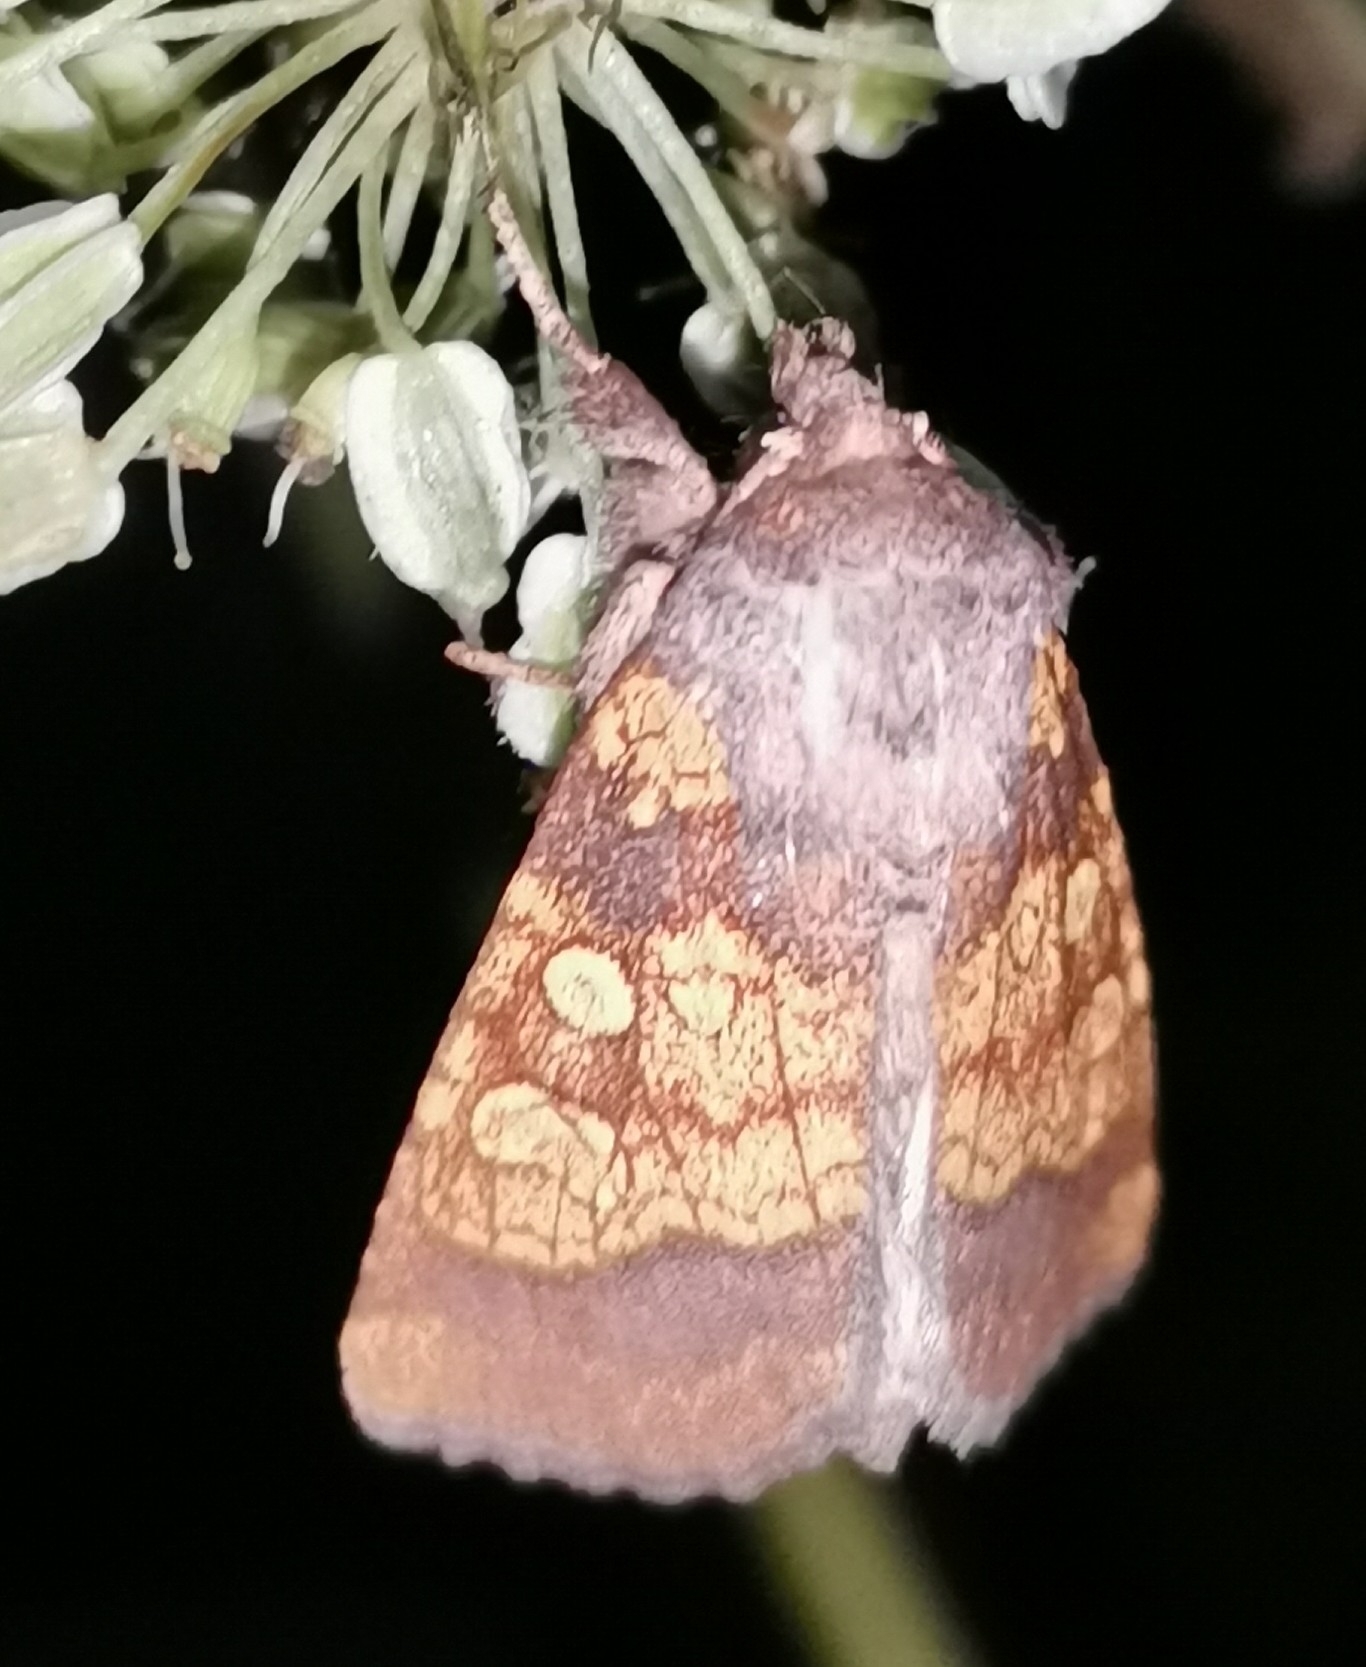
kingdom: Animalia
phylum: Arthropoda
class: Insecta
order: Lepidoptera
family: Noctuidae
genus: Gortyna
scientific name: Gortyna flavago
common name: Frosted orange
